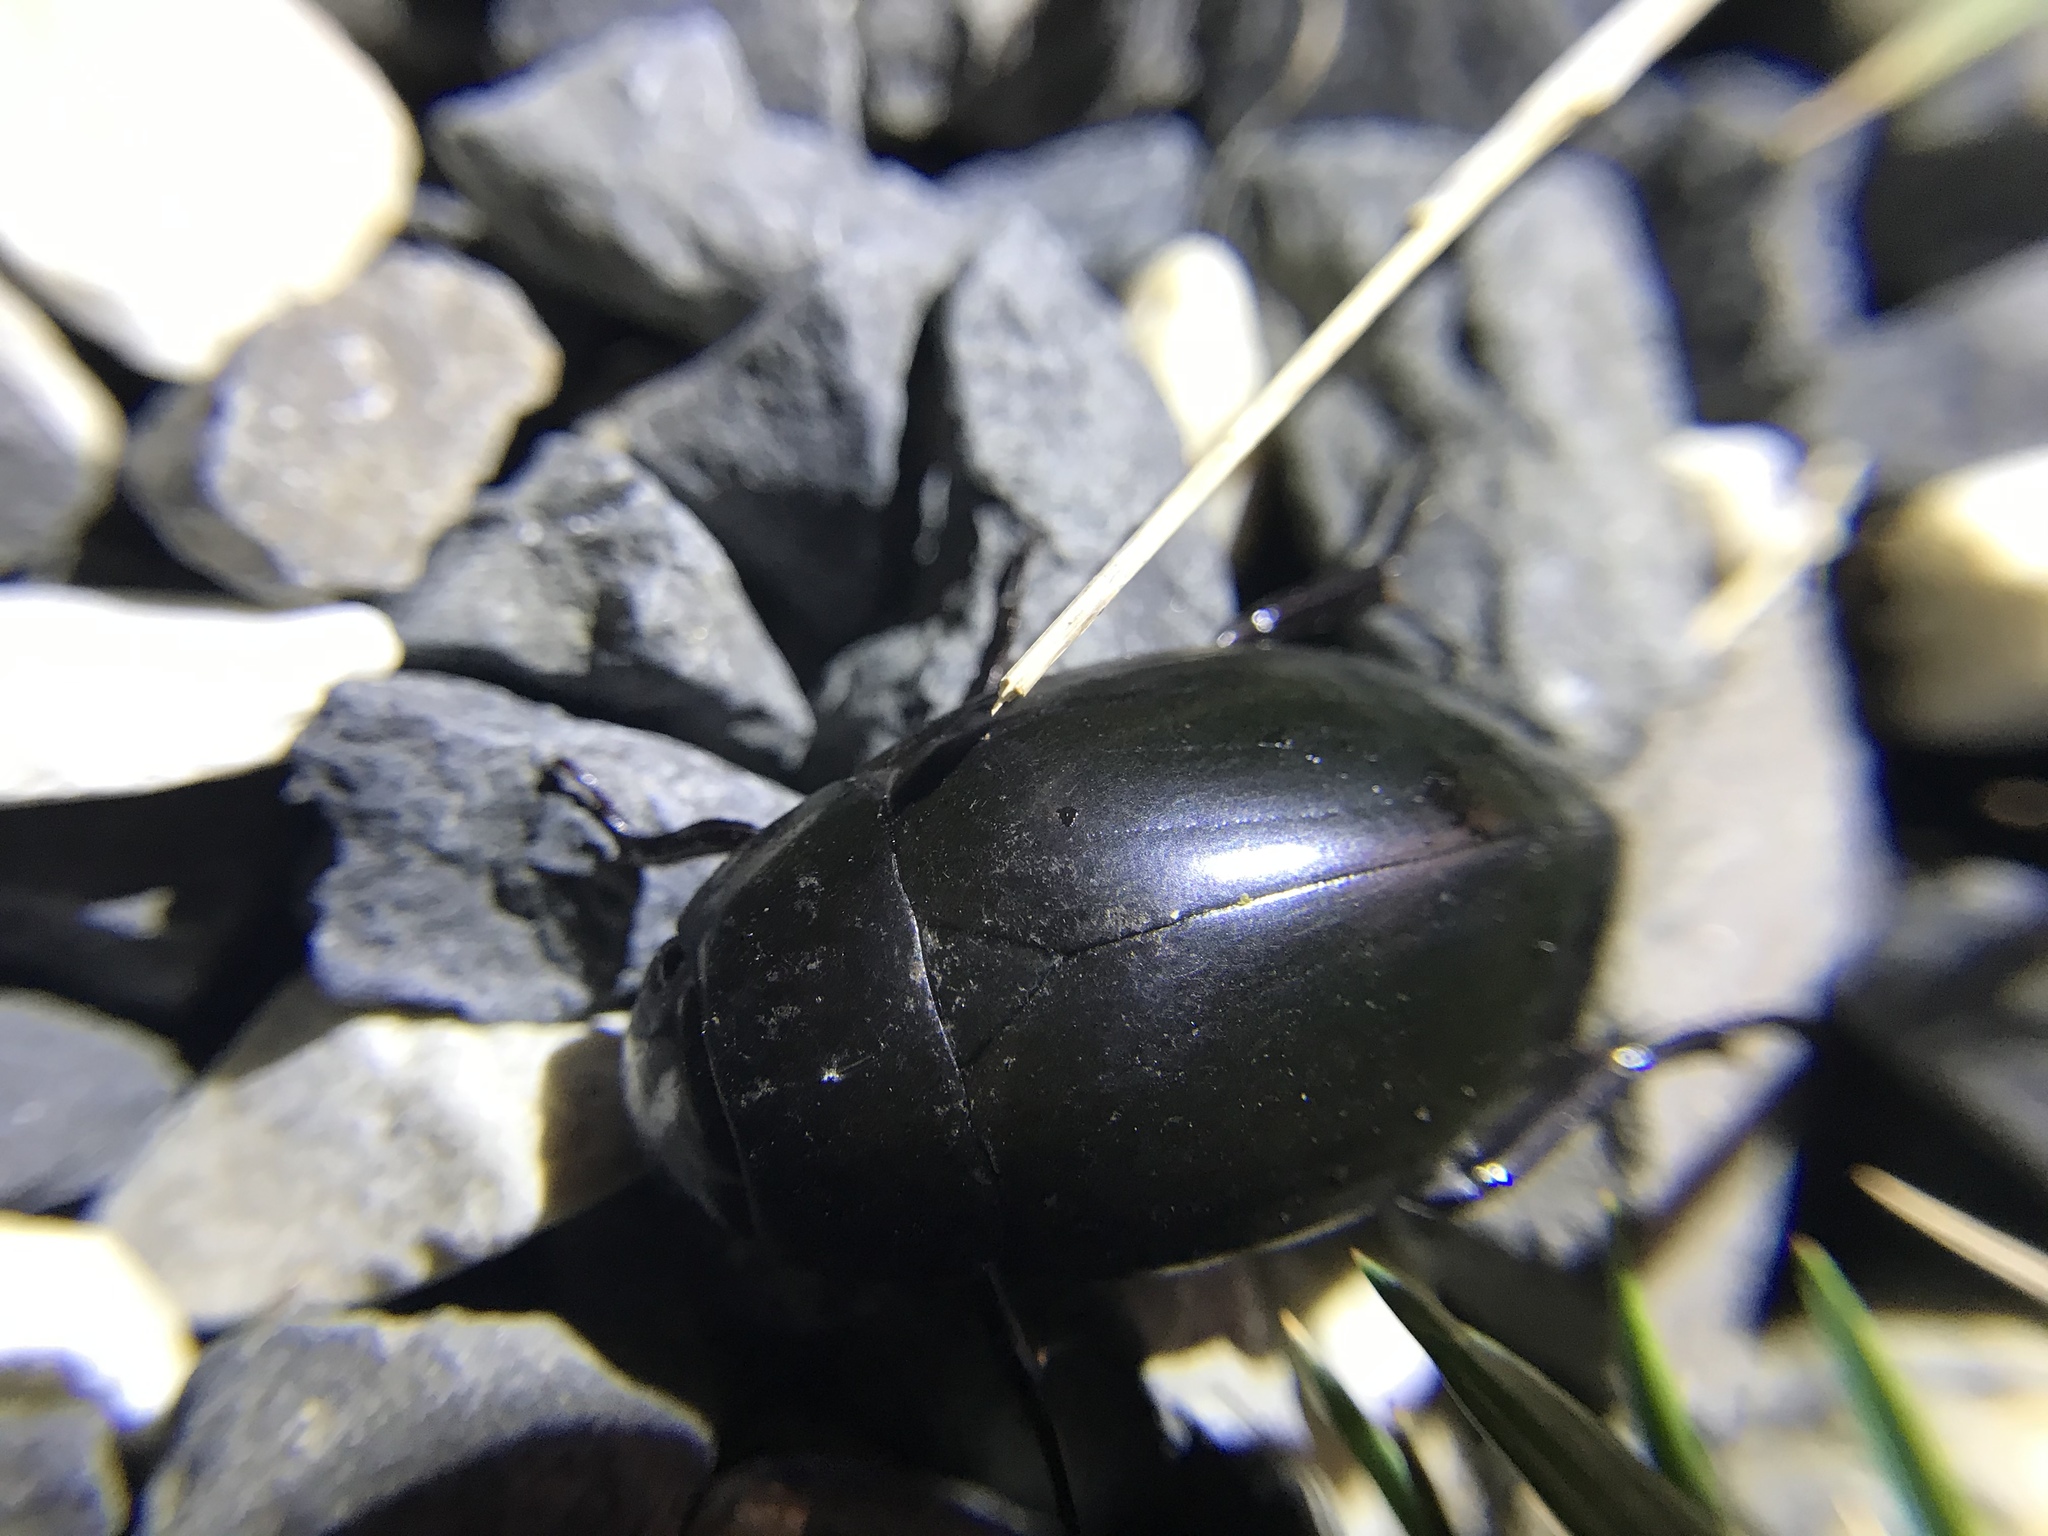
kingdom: Animalia
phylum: Arthropoda
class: Insecta
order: Coleoptera
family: Hydrophilidae
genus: Hydrophilus
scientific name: Hydrophilus ovatus
